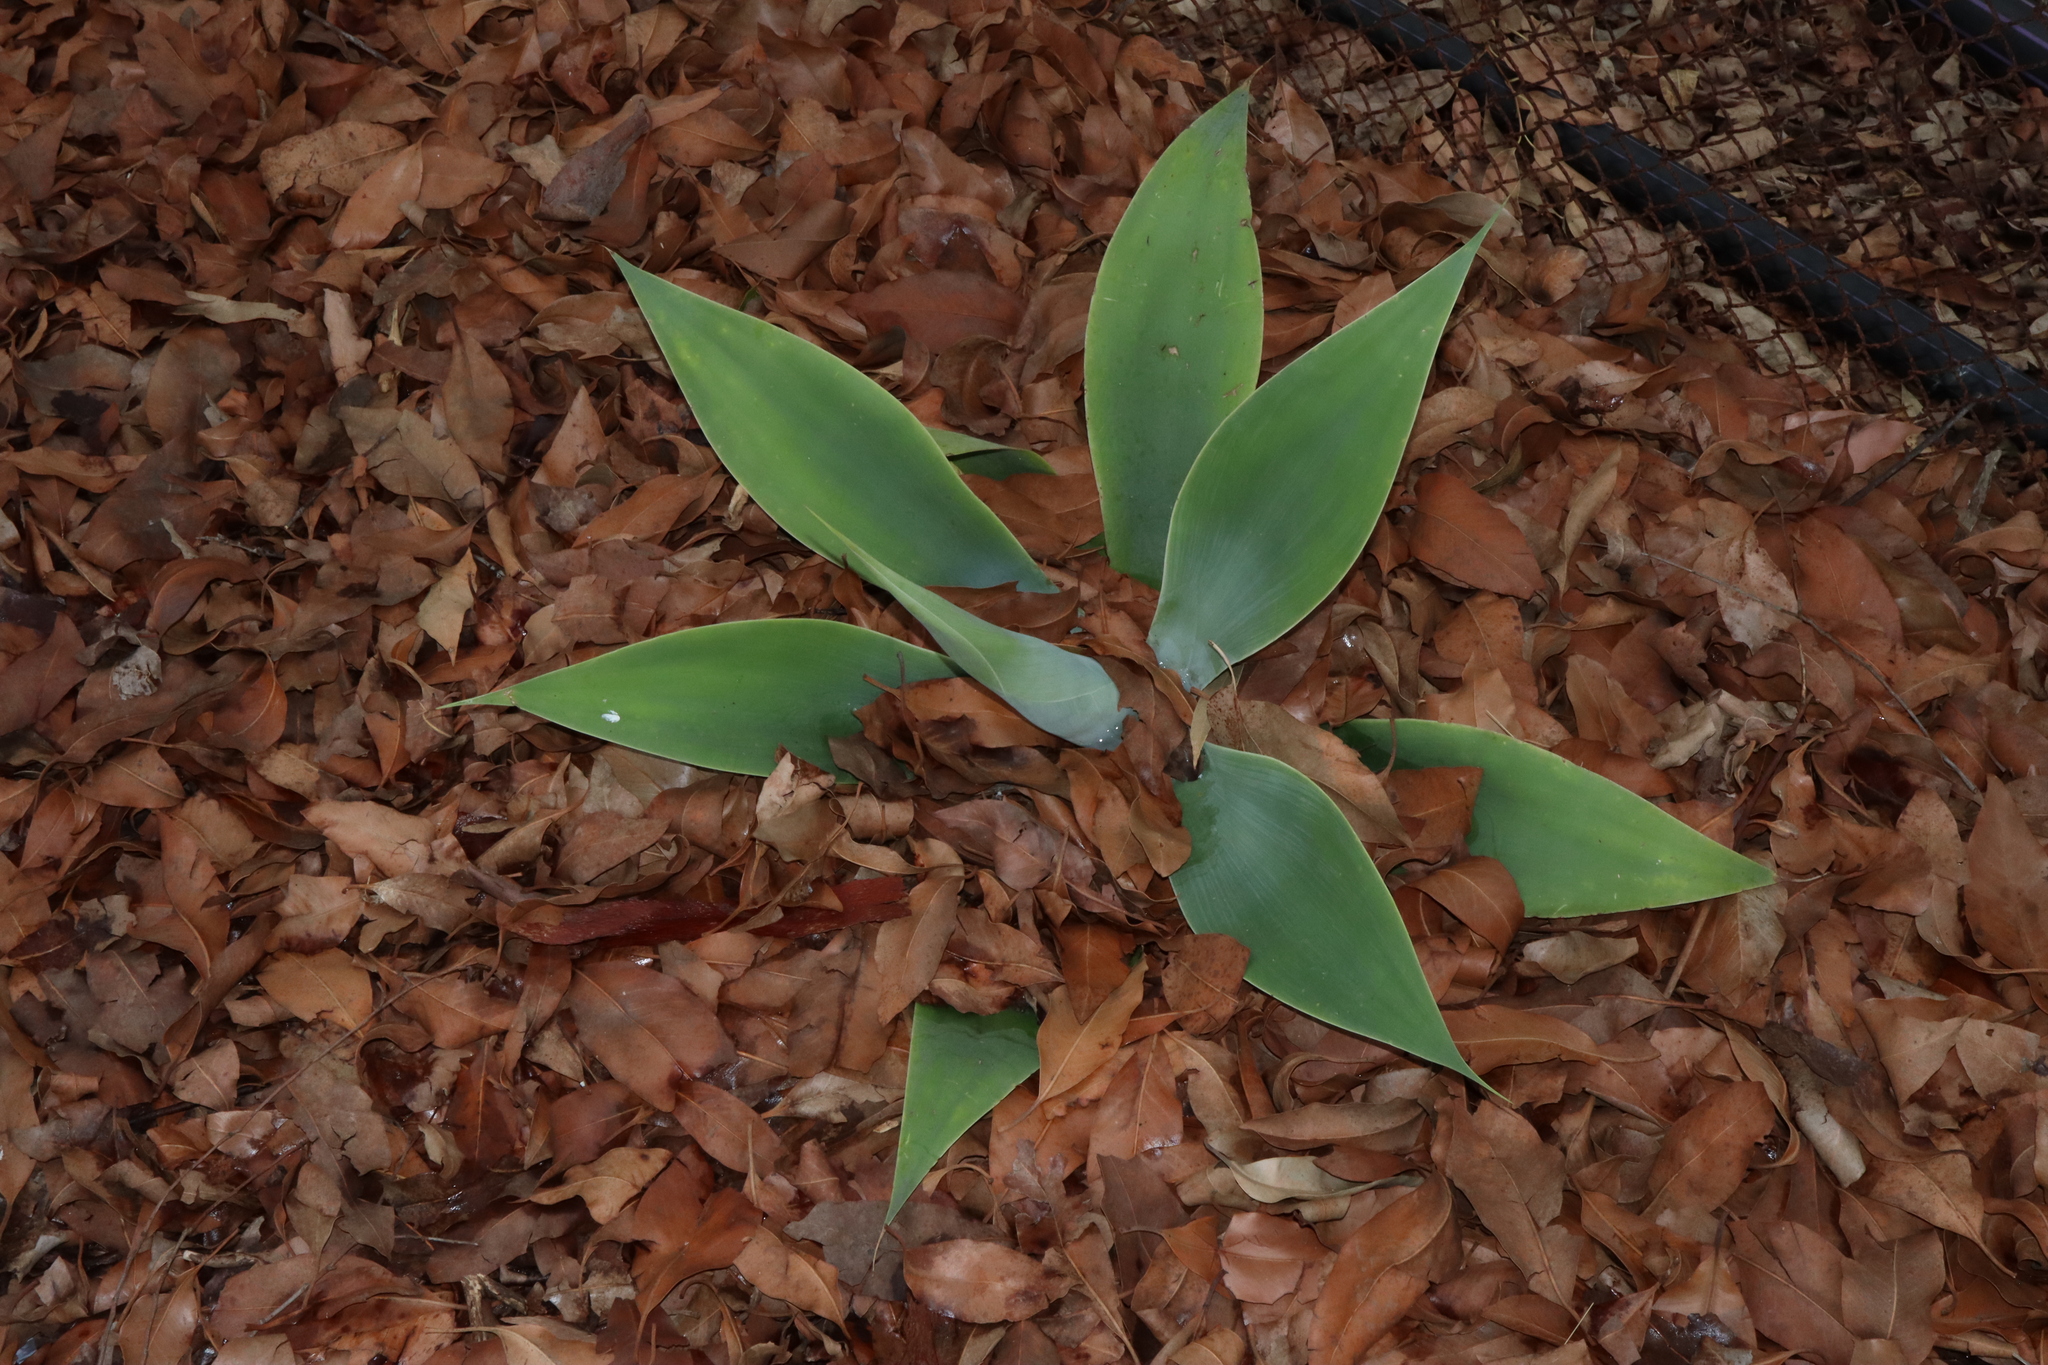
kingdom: Plantae
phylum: Tracheophyta
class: Liliopsida
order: Asparagales
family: Asparagaceae
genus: Agave
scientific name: Agave attenuata
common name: Fox tail agave
